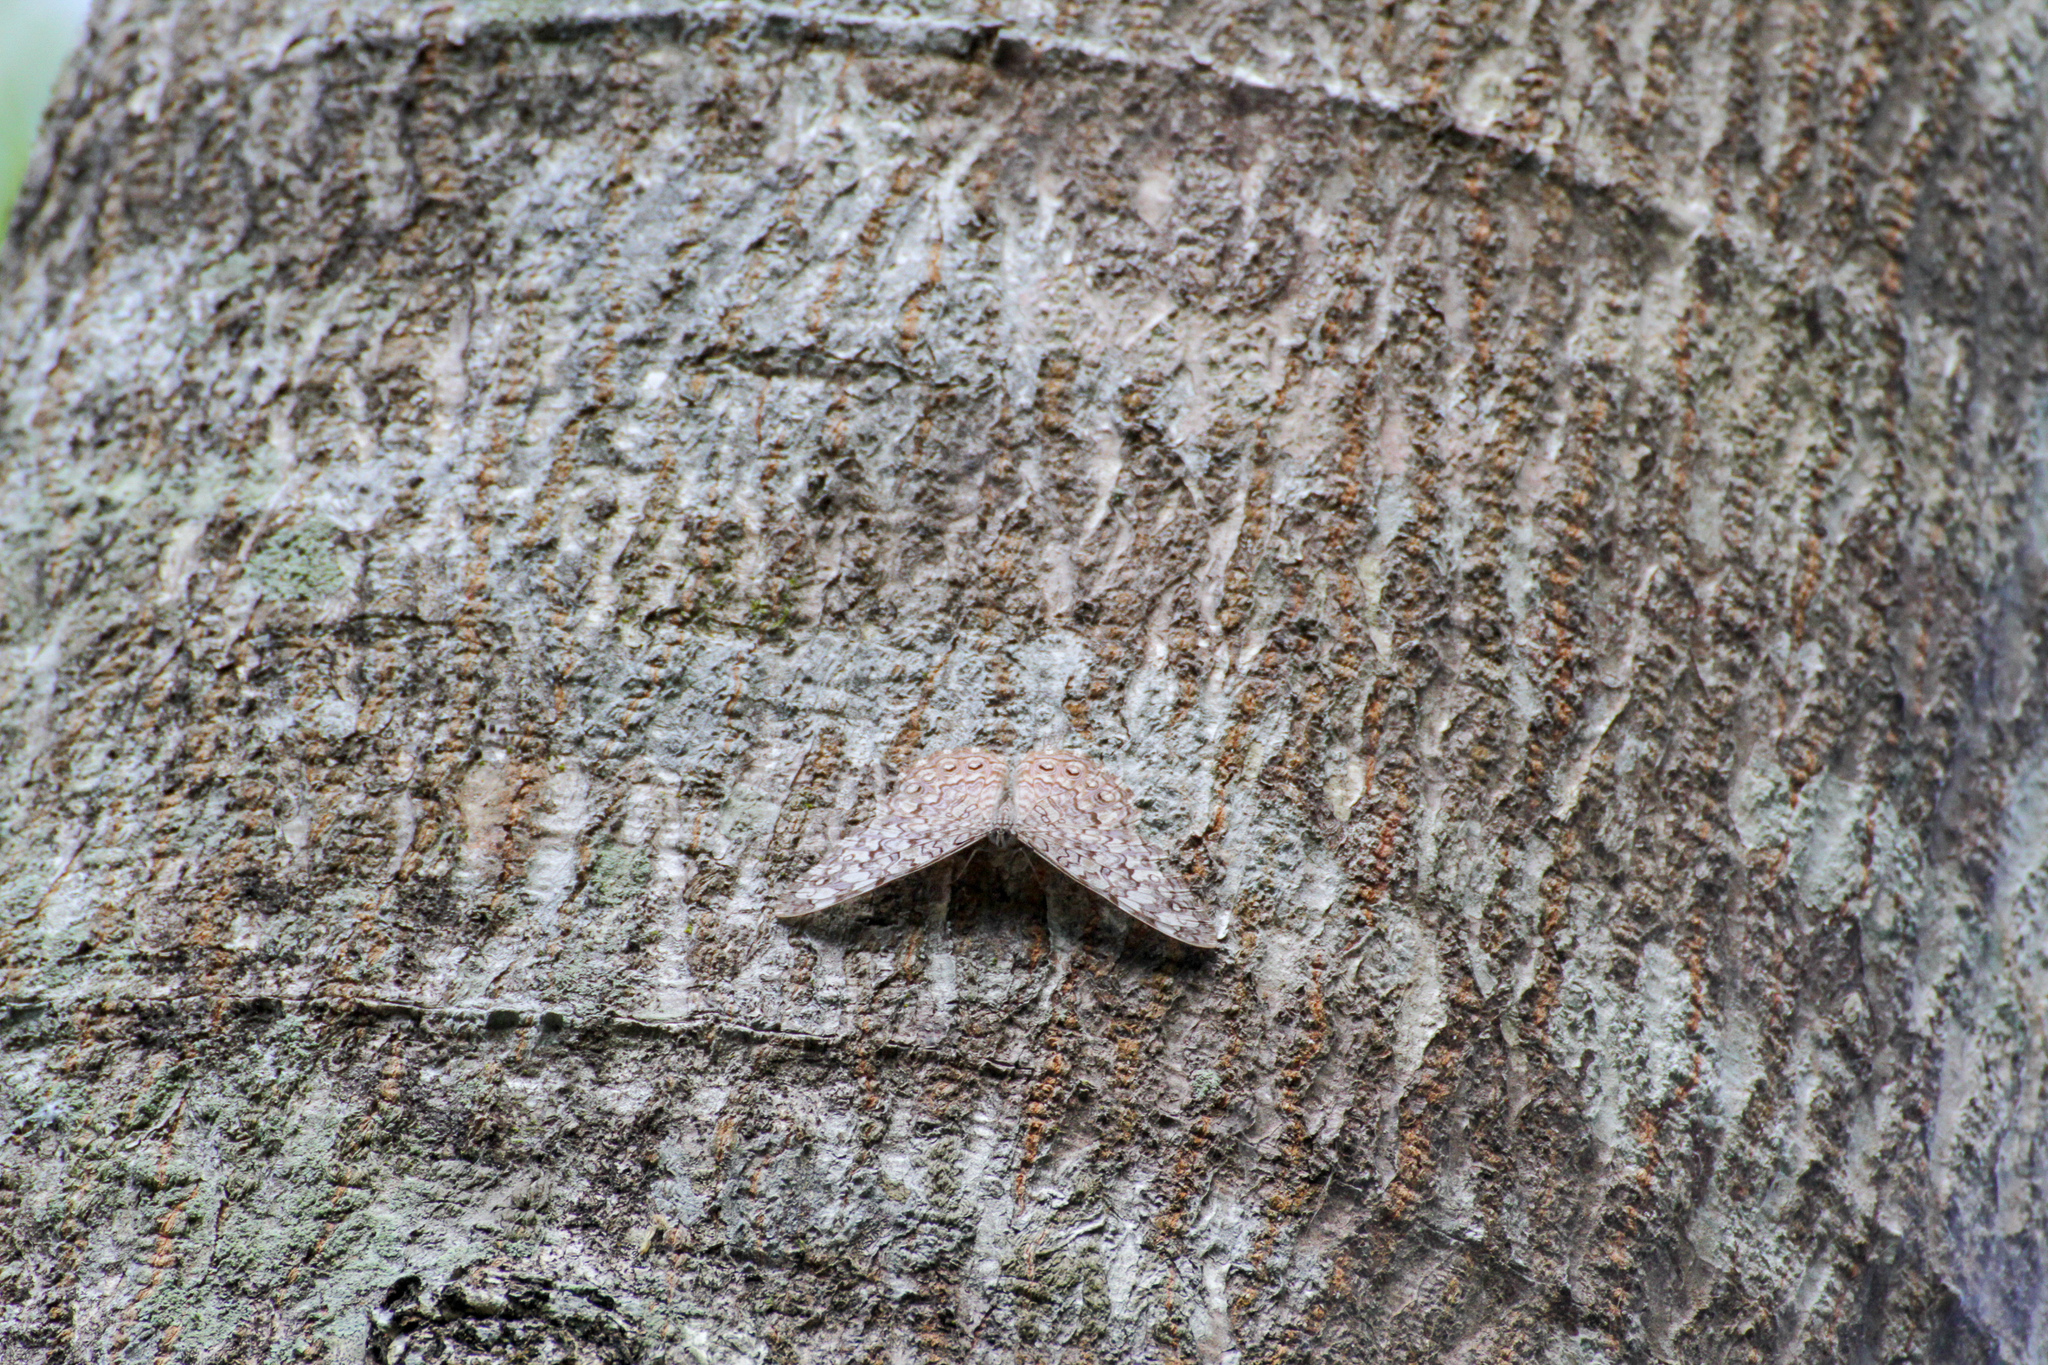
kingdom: Animalia
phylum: Arthropoda
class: Insecta
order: Lepidoptera
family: Nymphalidae
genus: Hamadryas
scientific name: Hamadryas februa
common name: Gray cracker
